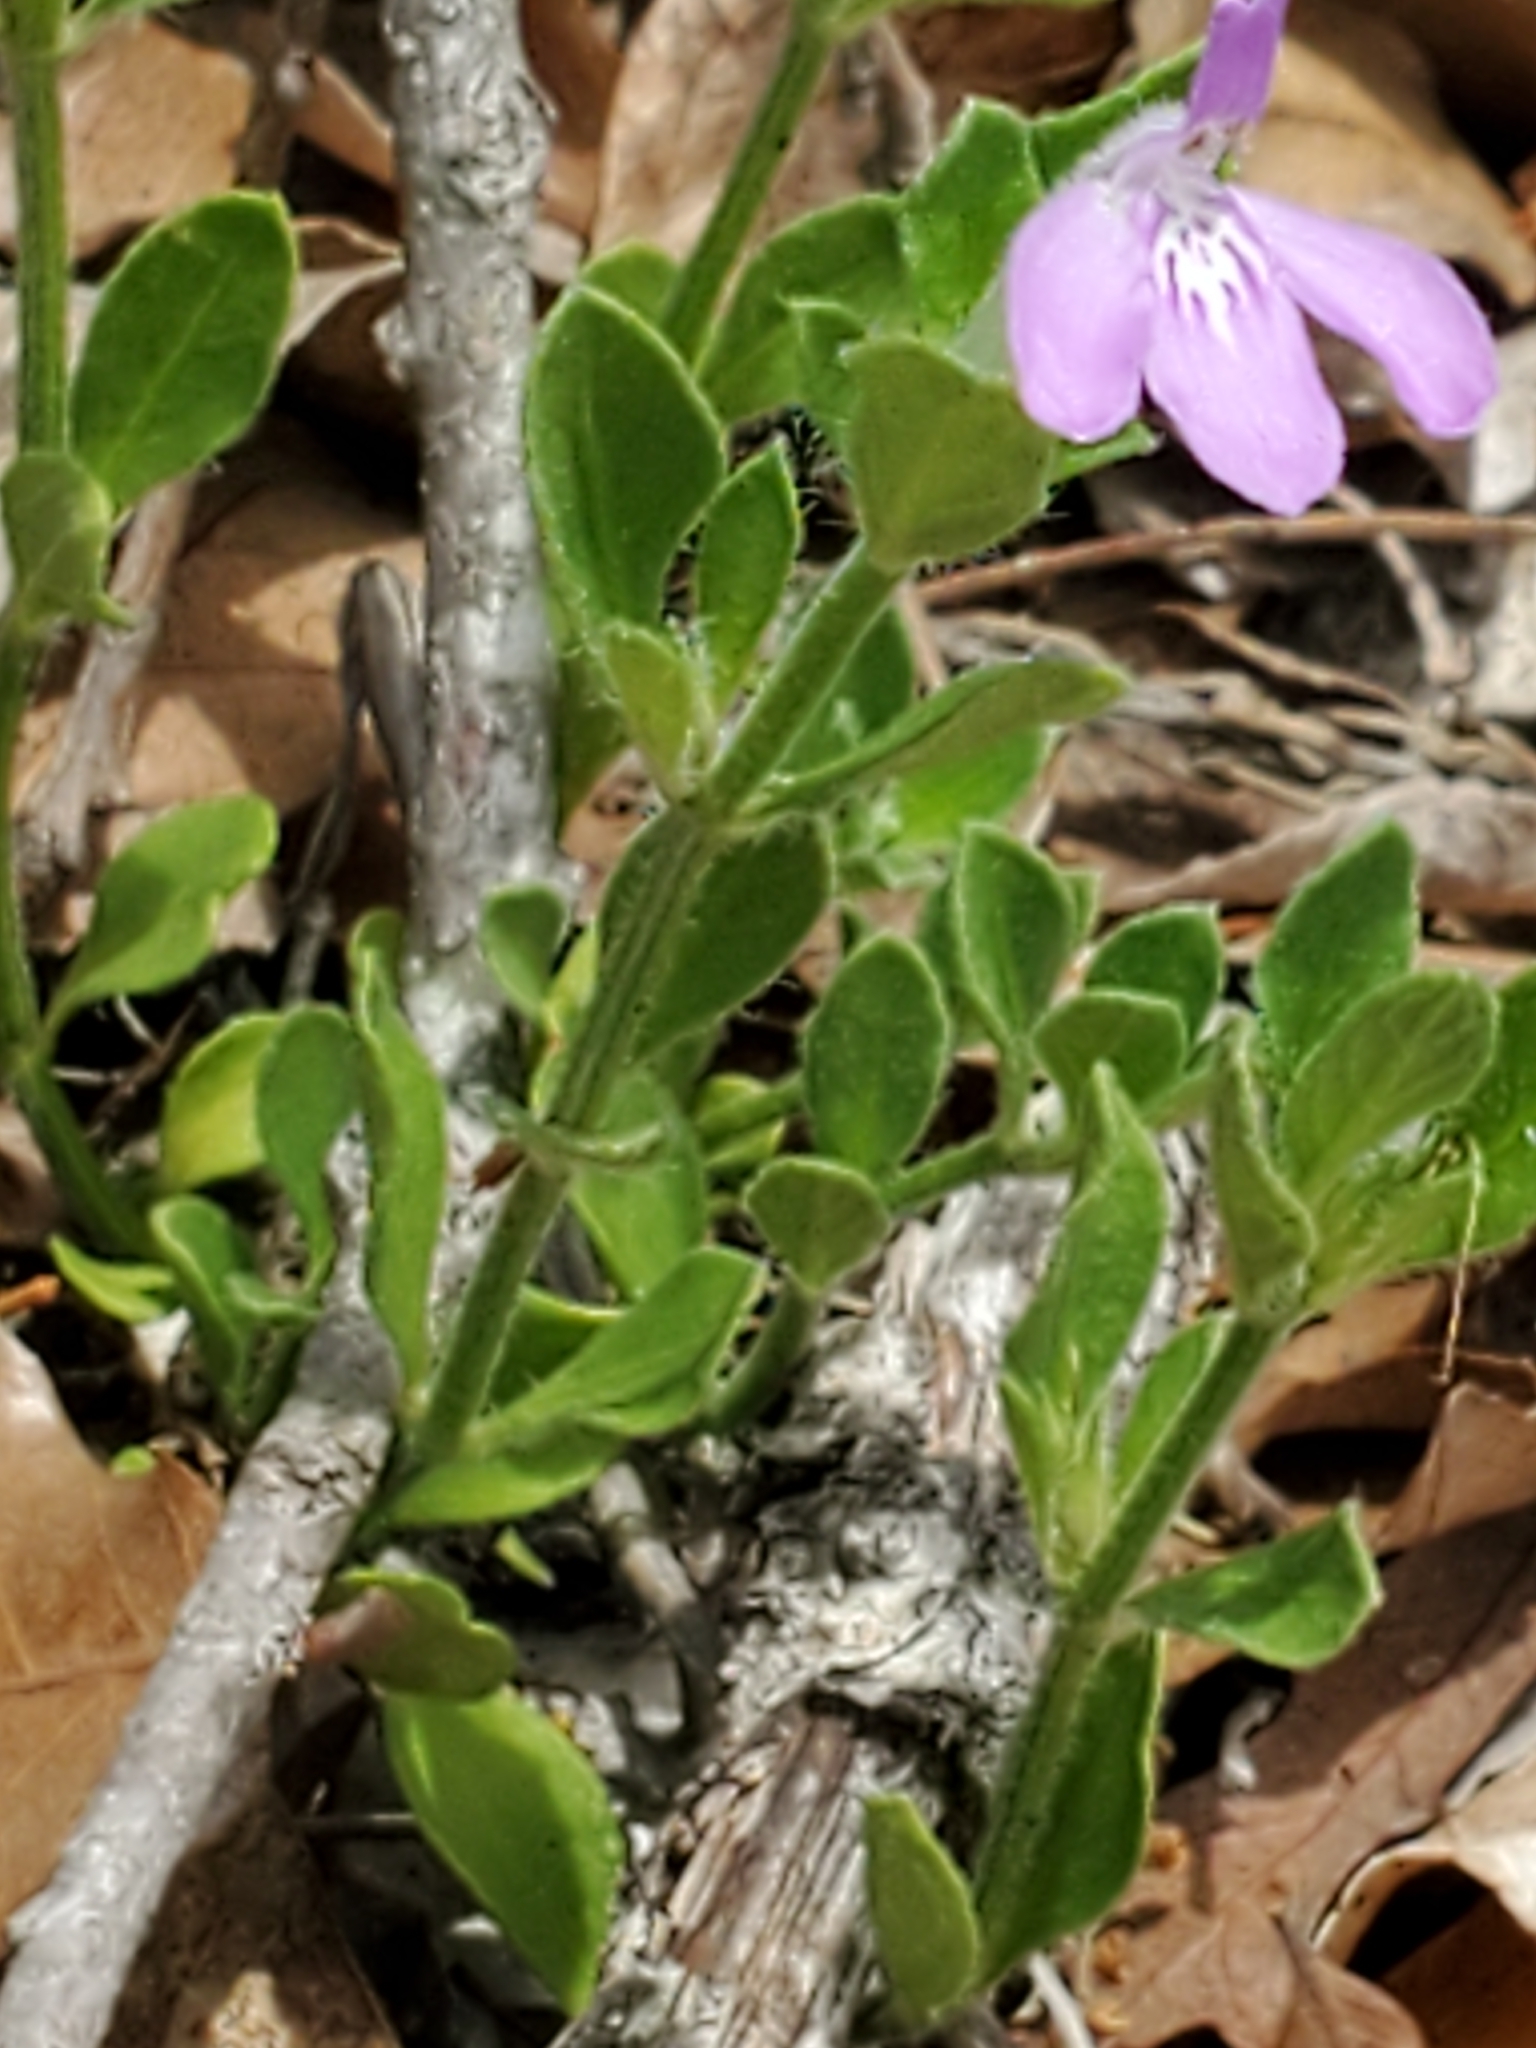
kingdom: Plantae
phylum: Tracheophyta
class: Magnoliopsida
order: Lamiales
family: Acanthaceae
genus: Justicia
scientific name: Justicia pilosella
